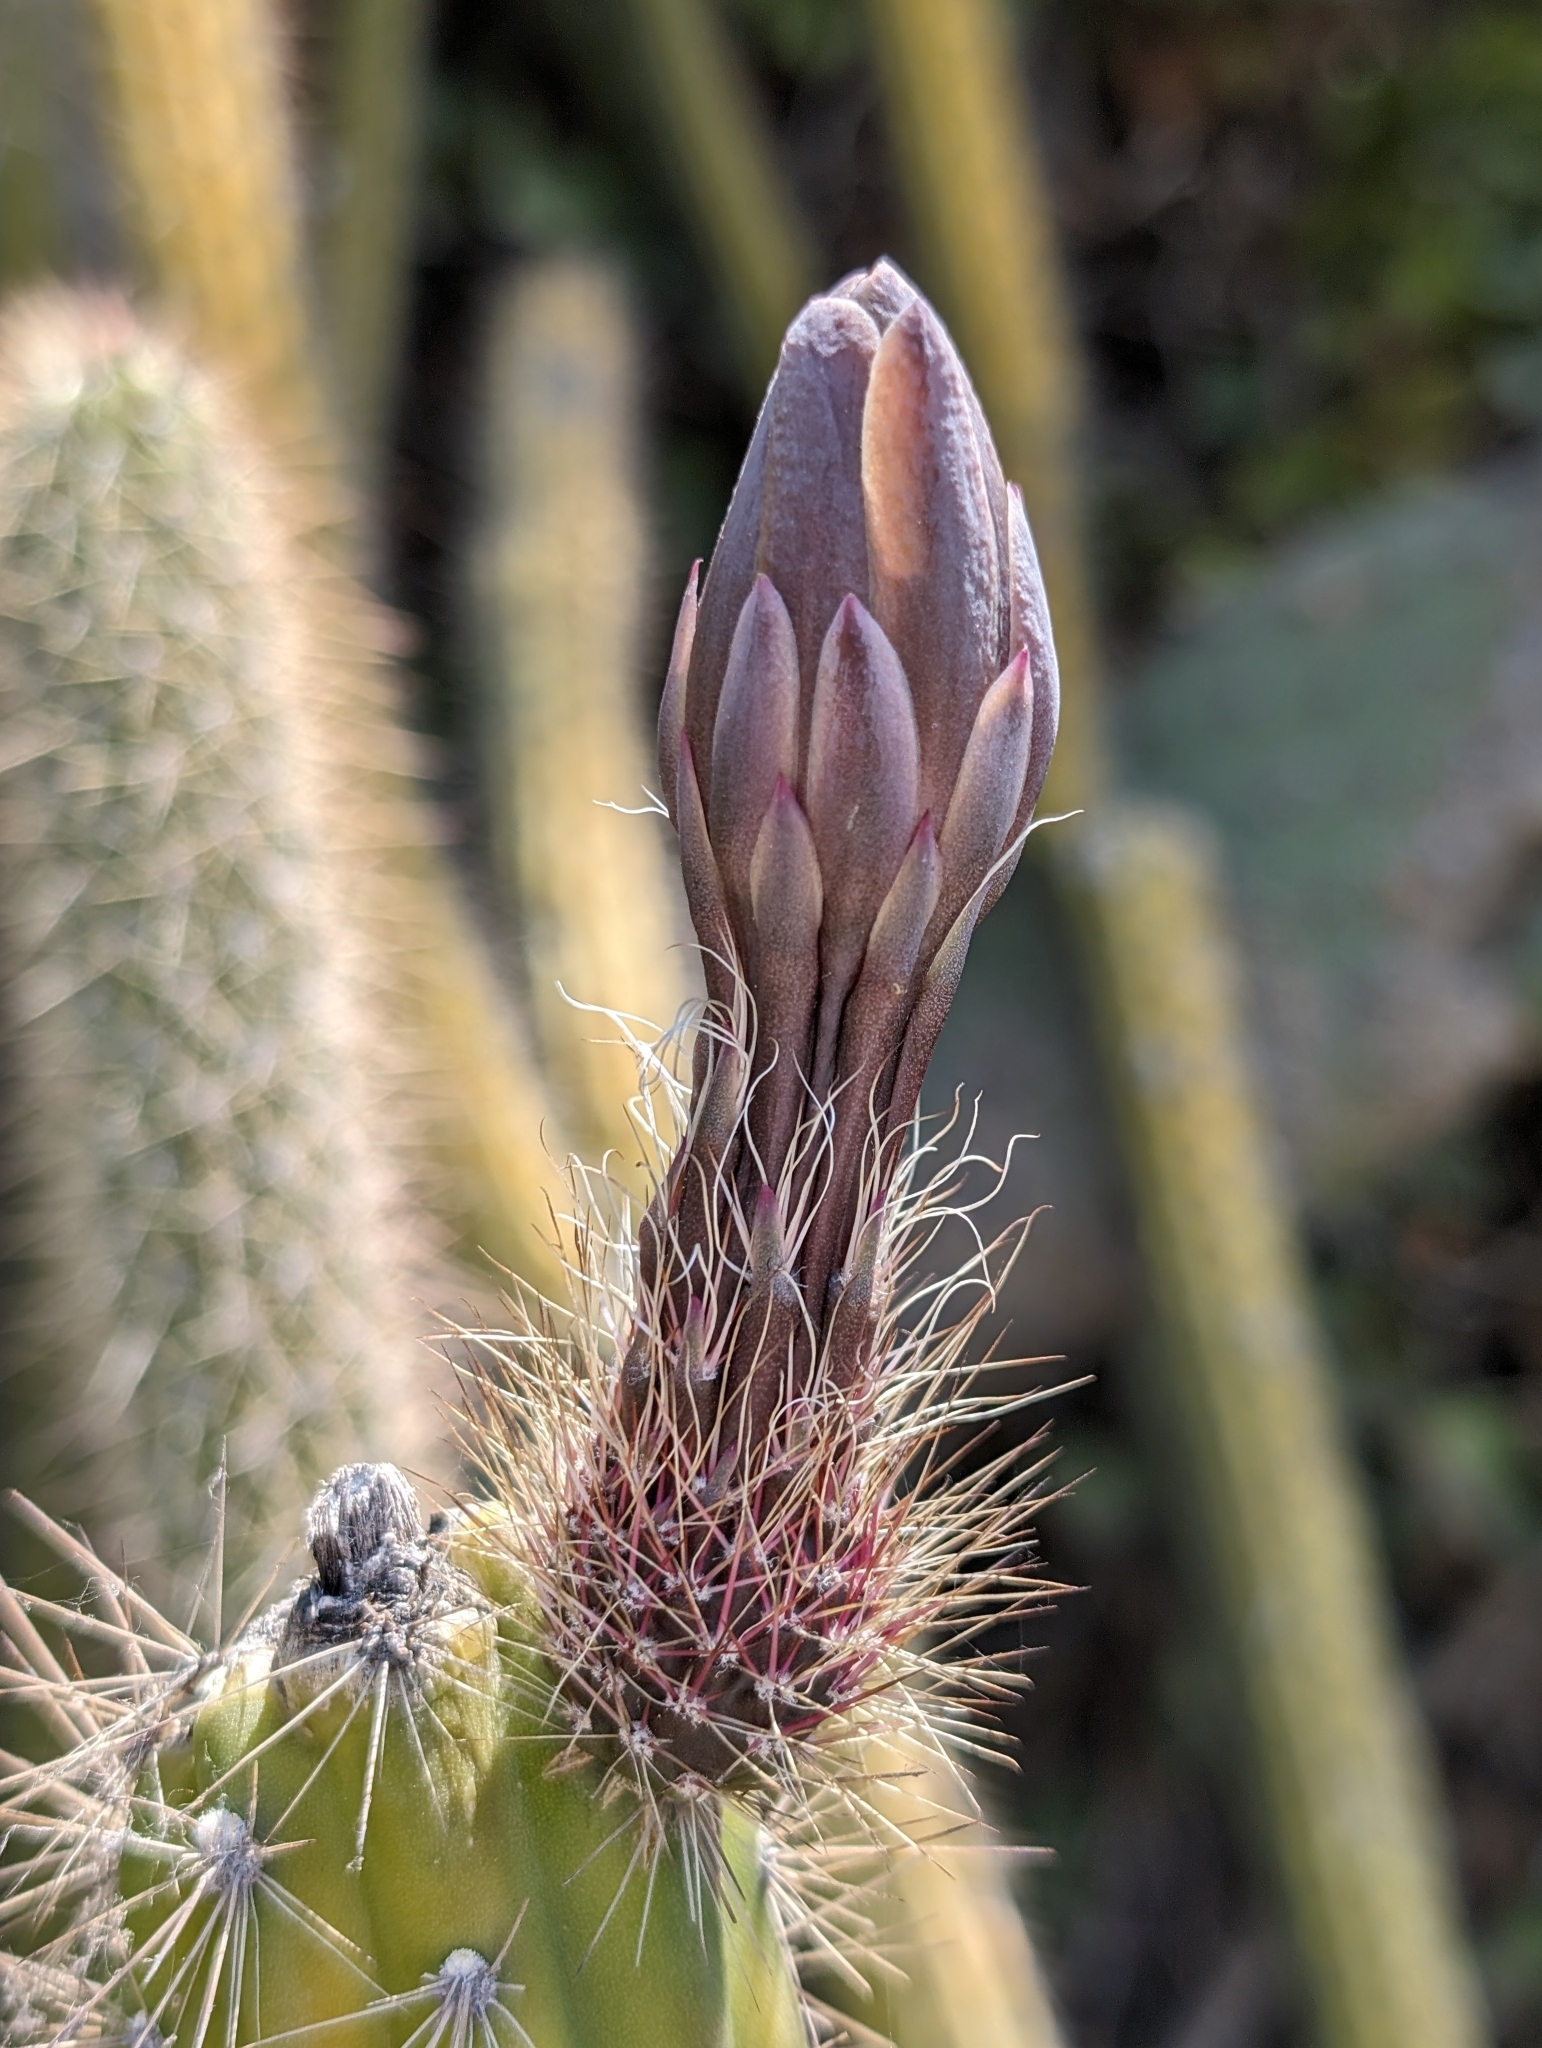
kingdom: Plantae
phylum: Tracheophyta
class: Magnoliopsida
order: Caryophyllales
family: Cactaceae
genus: Peniocereus
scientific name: Peniocereus serpentinus
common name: Serpent cactus
